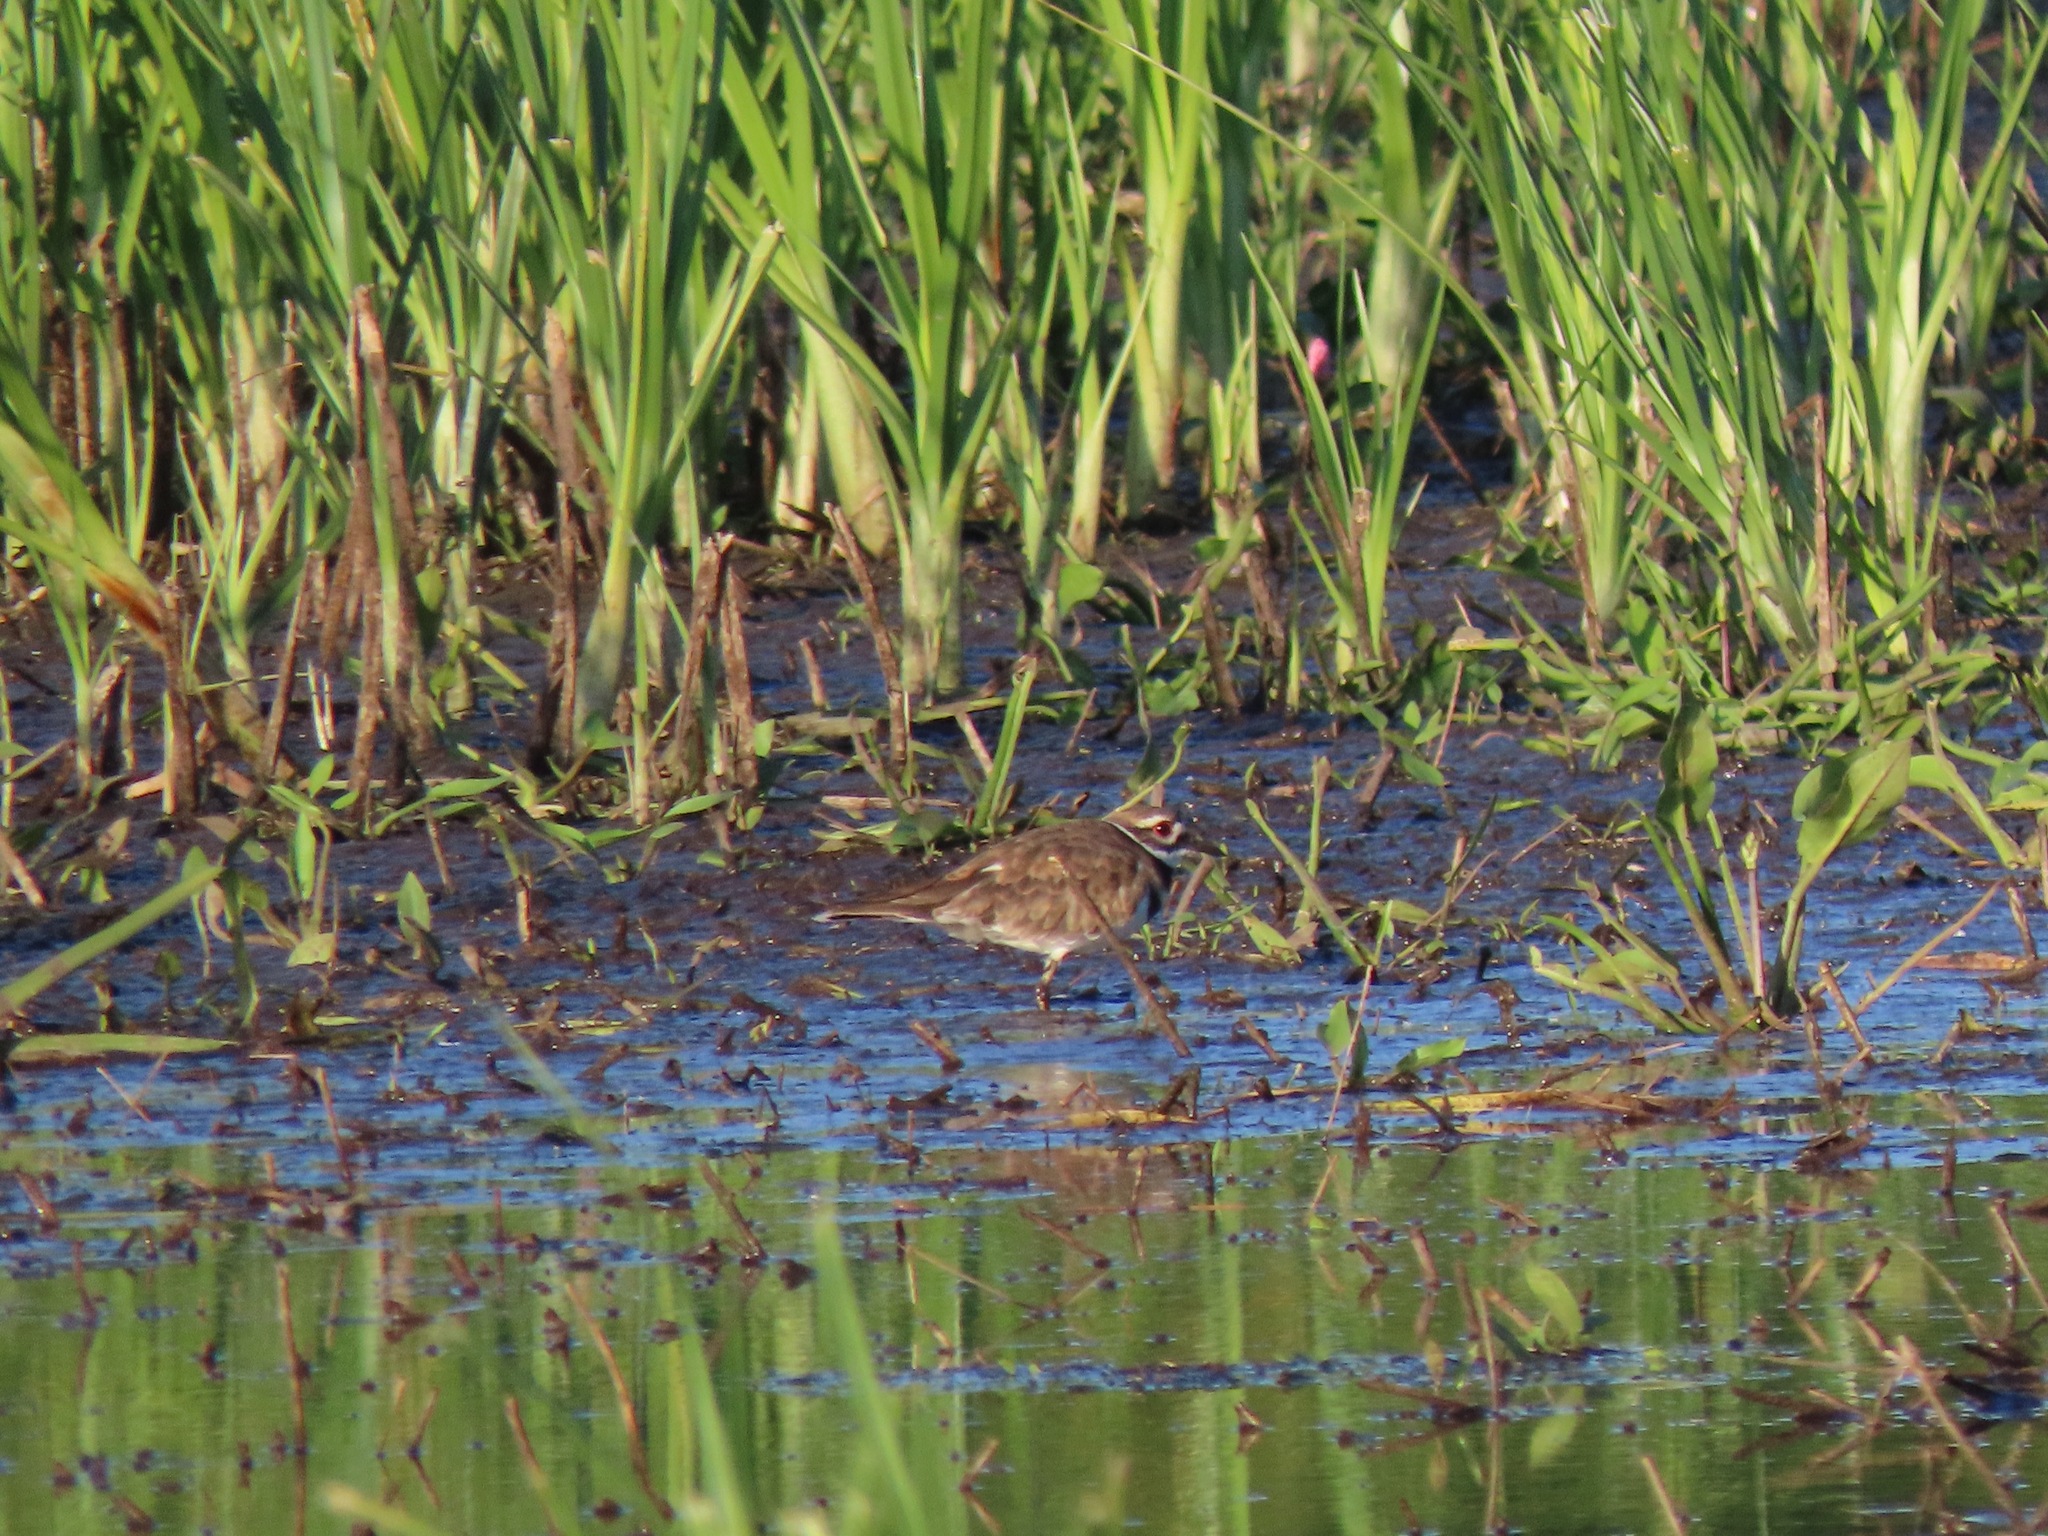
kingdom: Animalia
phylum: Chordata
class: Aves
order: Charadriiformes
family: Charadriidae
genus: Charadrius
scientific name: Charadrius vociferus
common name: Killdeer
